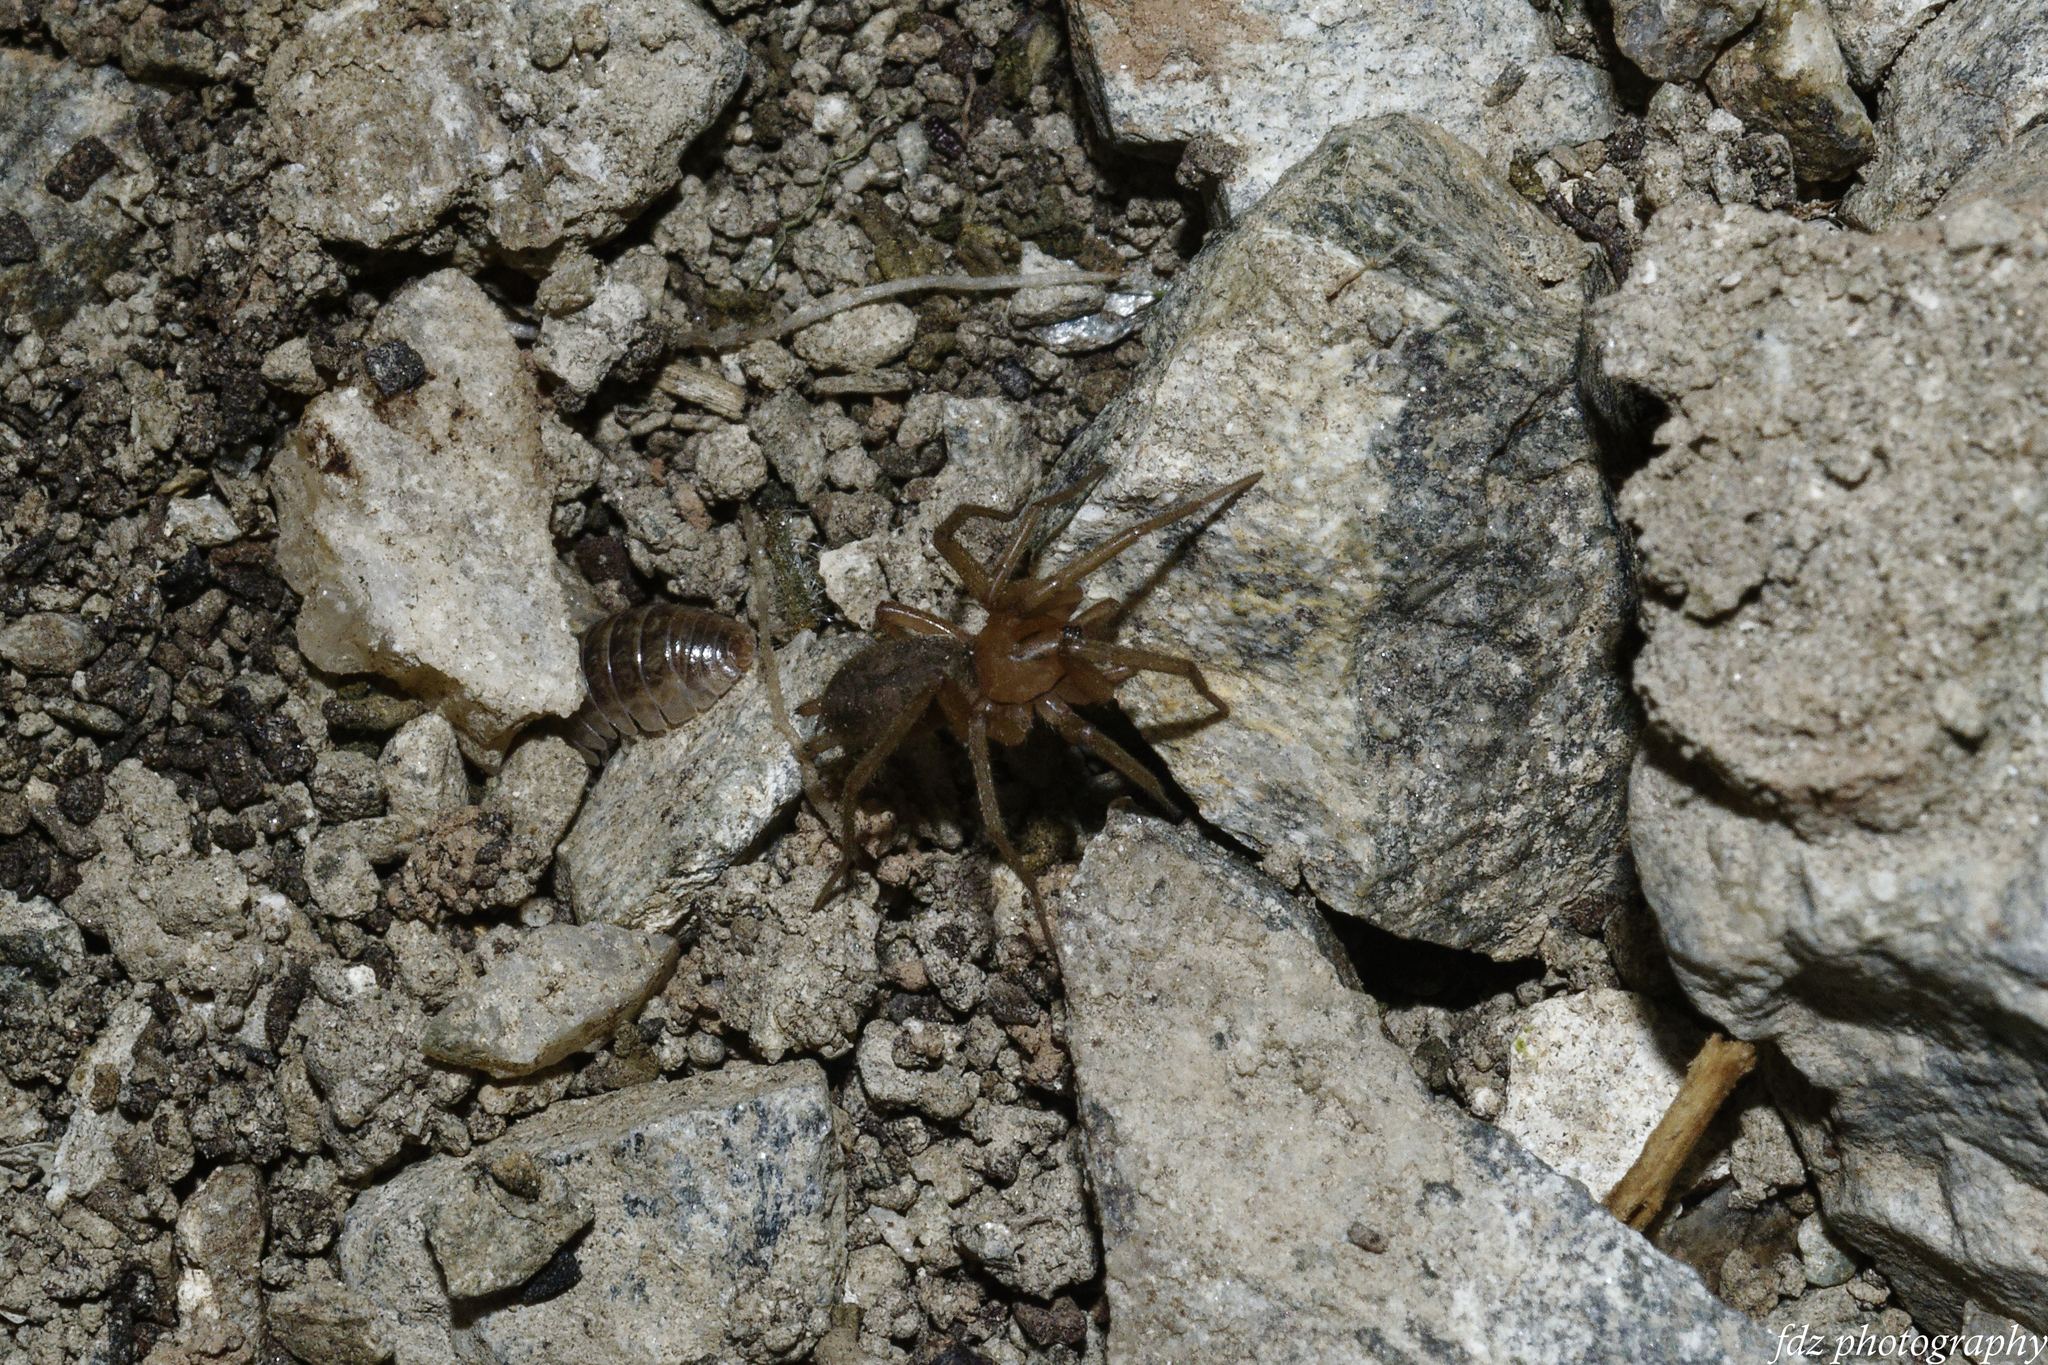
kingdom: Animalia
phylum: Arthropoda
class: Arachnida
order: Araneae
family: Gnaphosidae
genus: Pterotricha
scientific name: Pterotricha simoni
